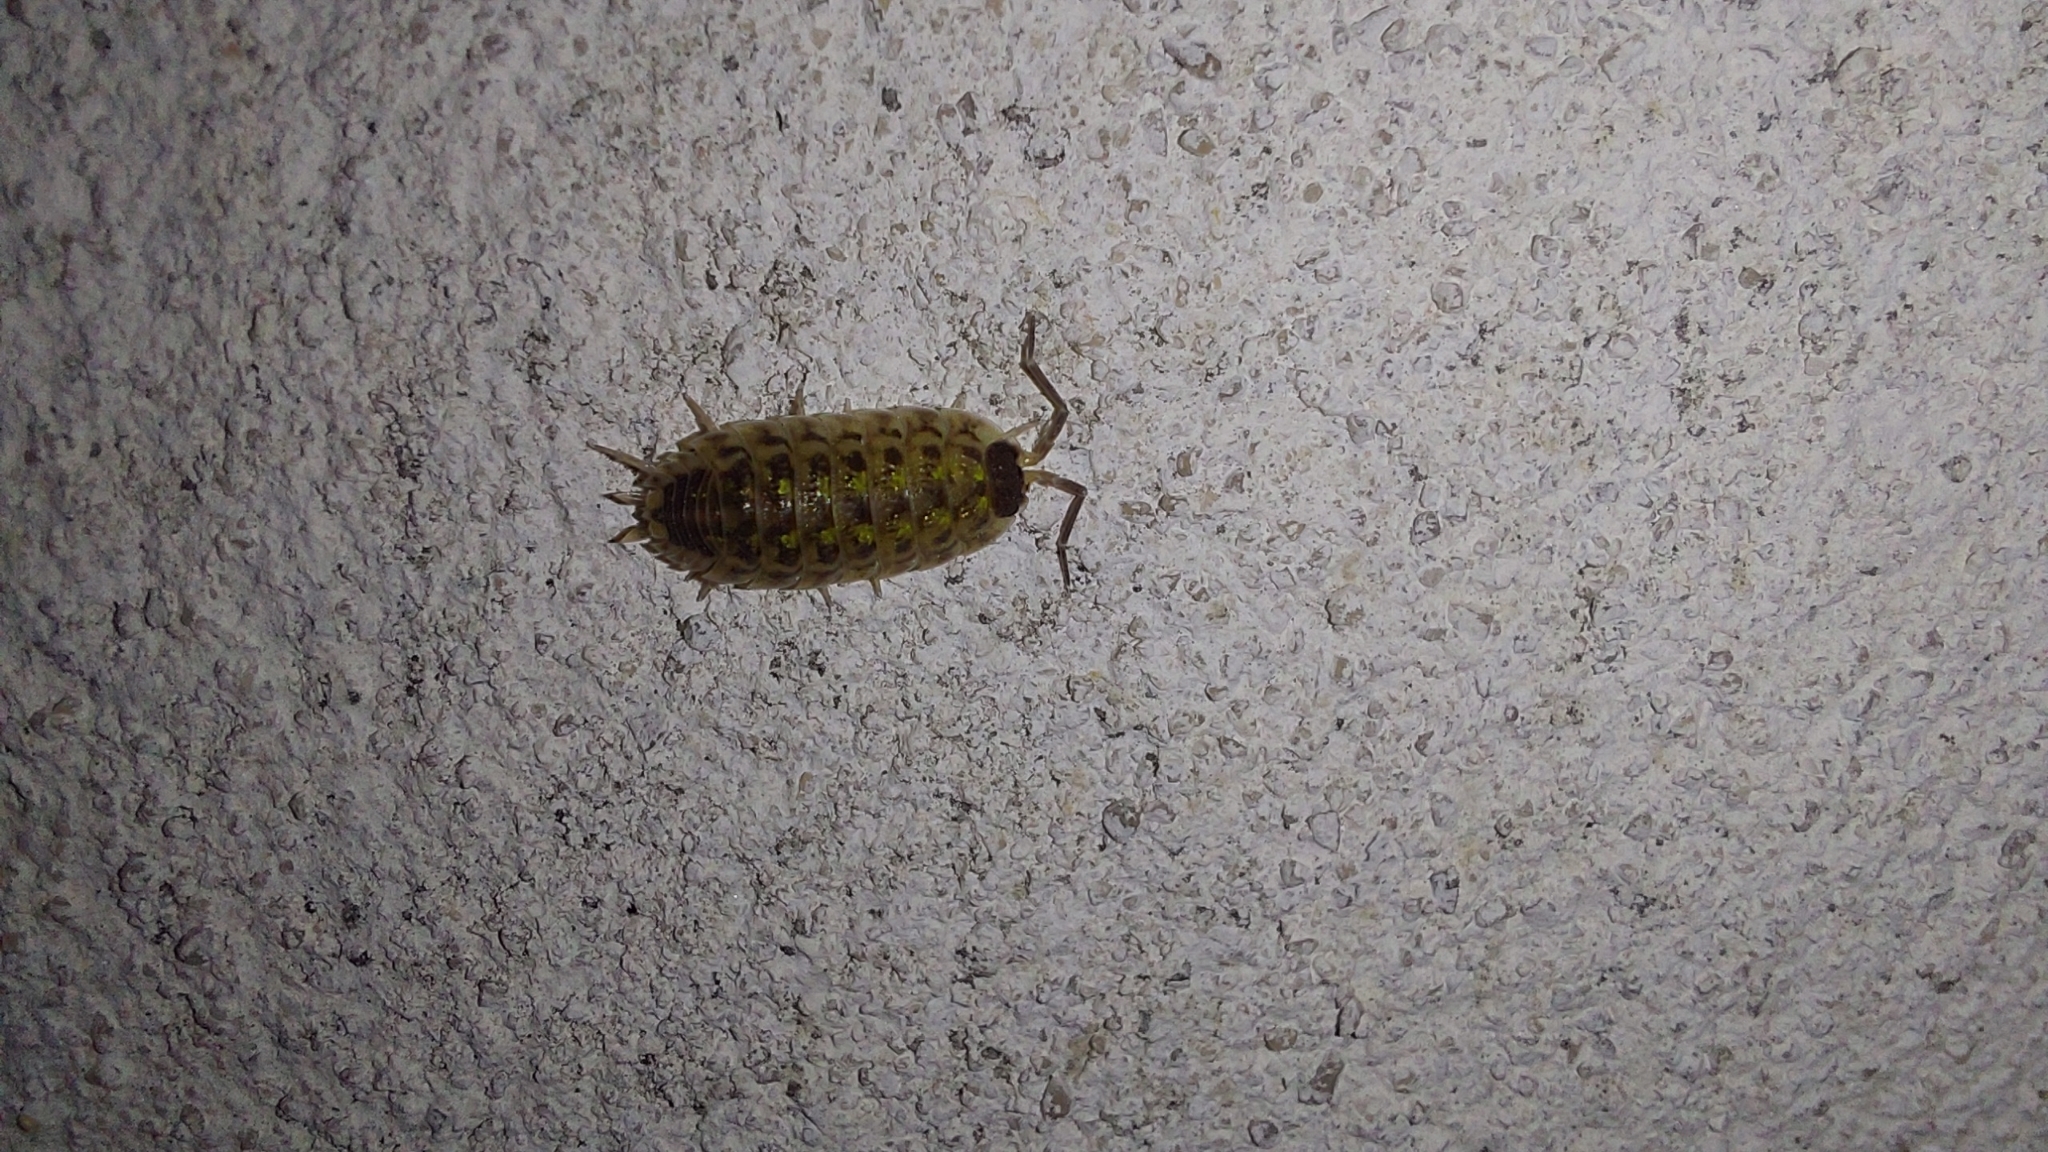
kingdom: Animalia
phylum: Arthropoda
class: Malacostraca
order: Isopoda
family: Porcellionidae
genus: Porcellio
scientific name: Porcellio spinicornis
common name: Painted woodlouse
